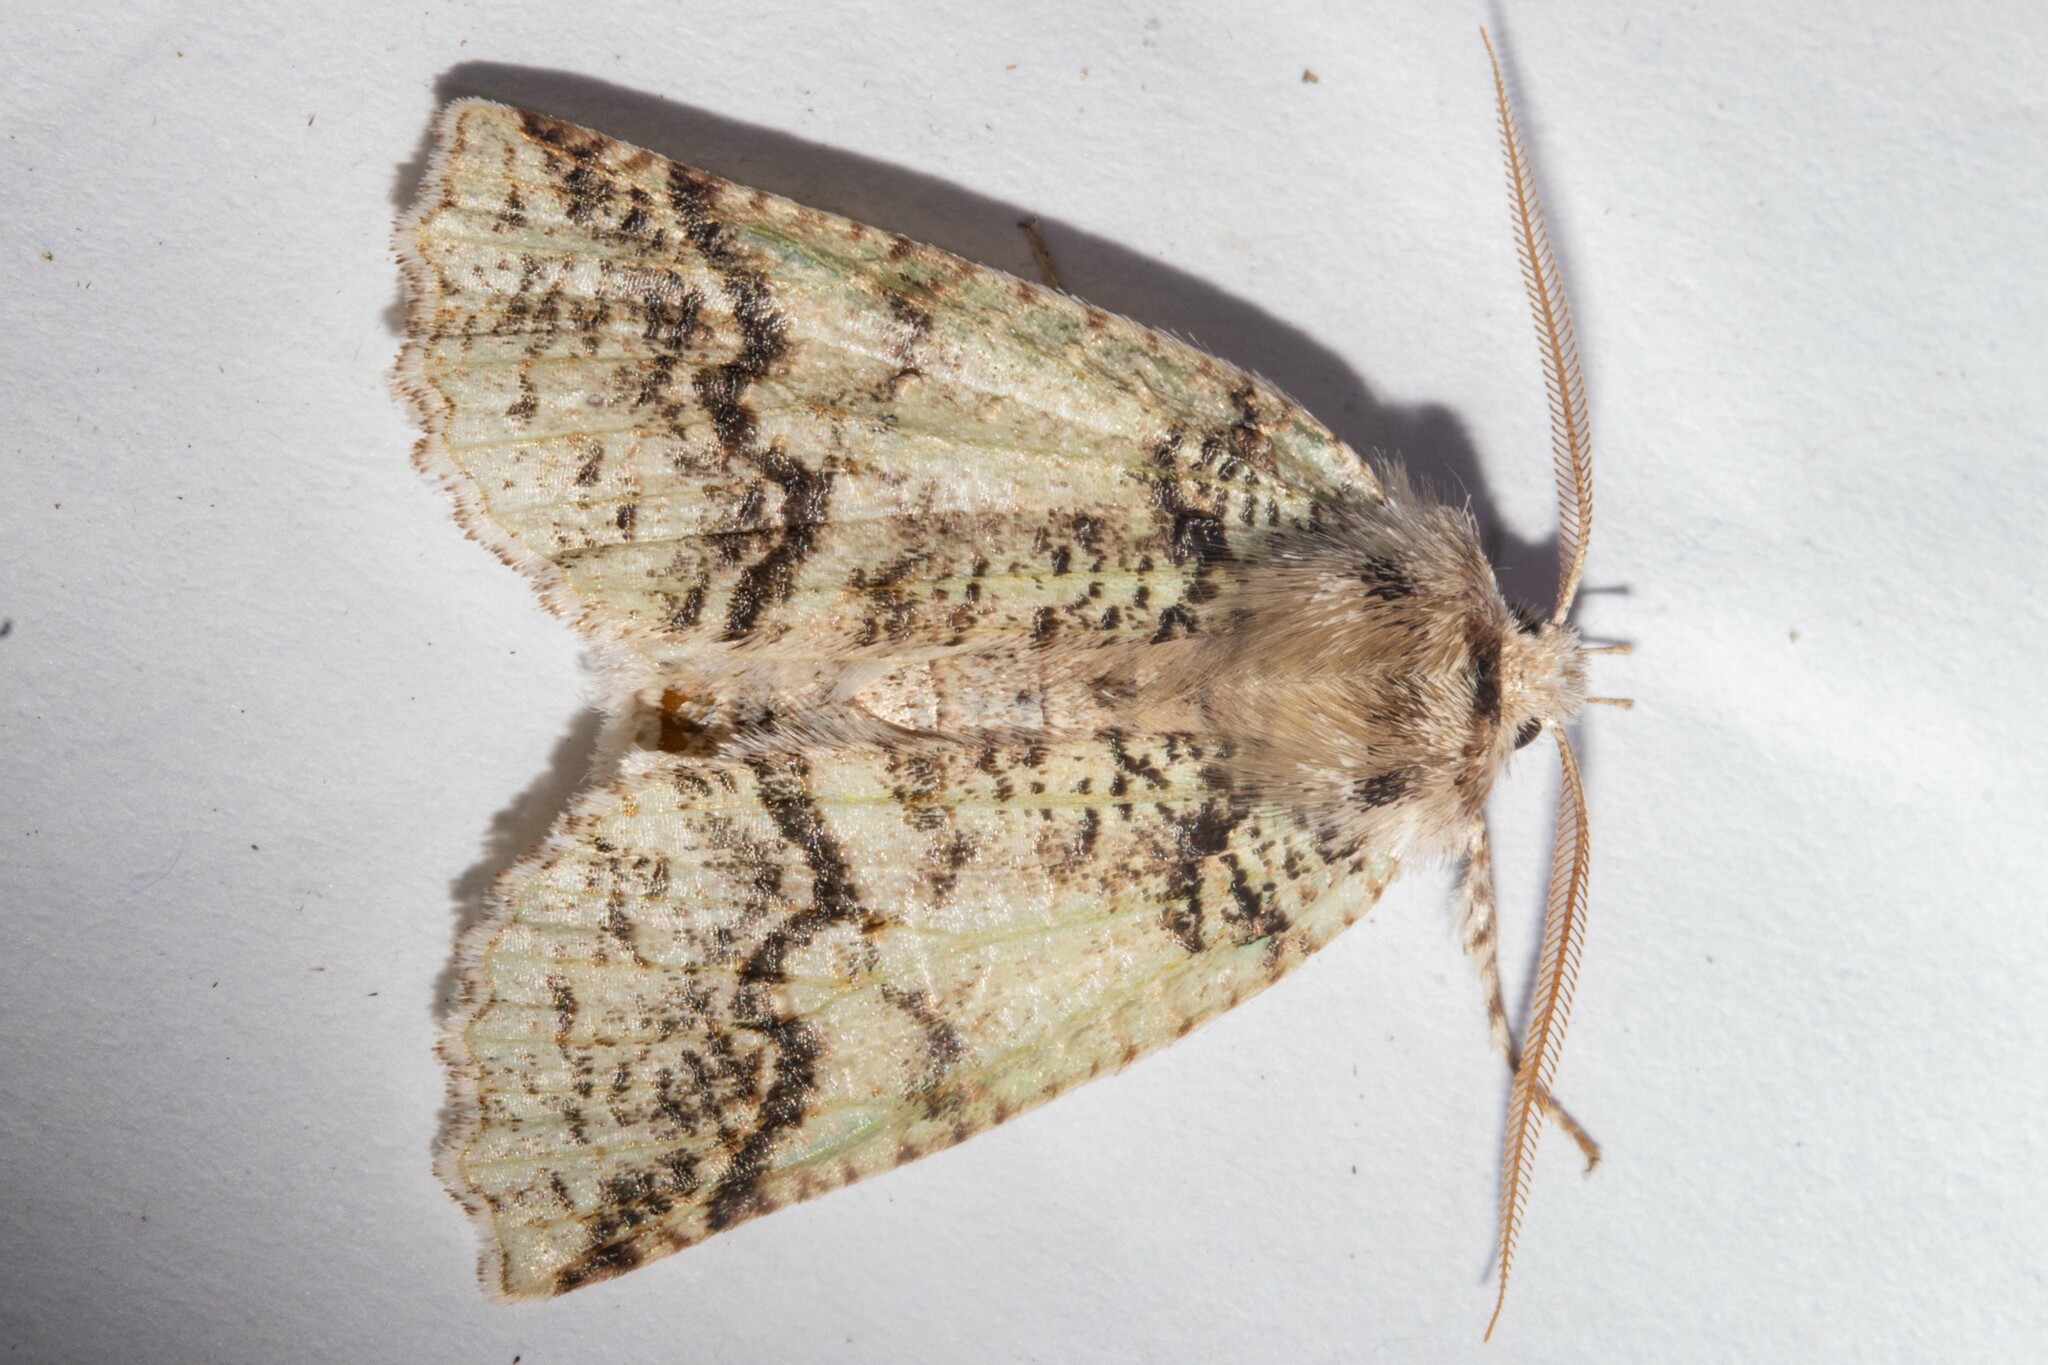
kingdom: Animalia
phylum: Arthropoda
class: Insecta
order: Lepidoptera
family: Geometridae
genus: Declana
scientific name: Declana floccosa
